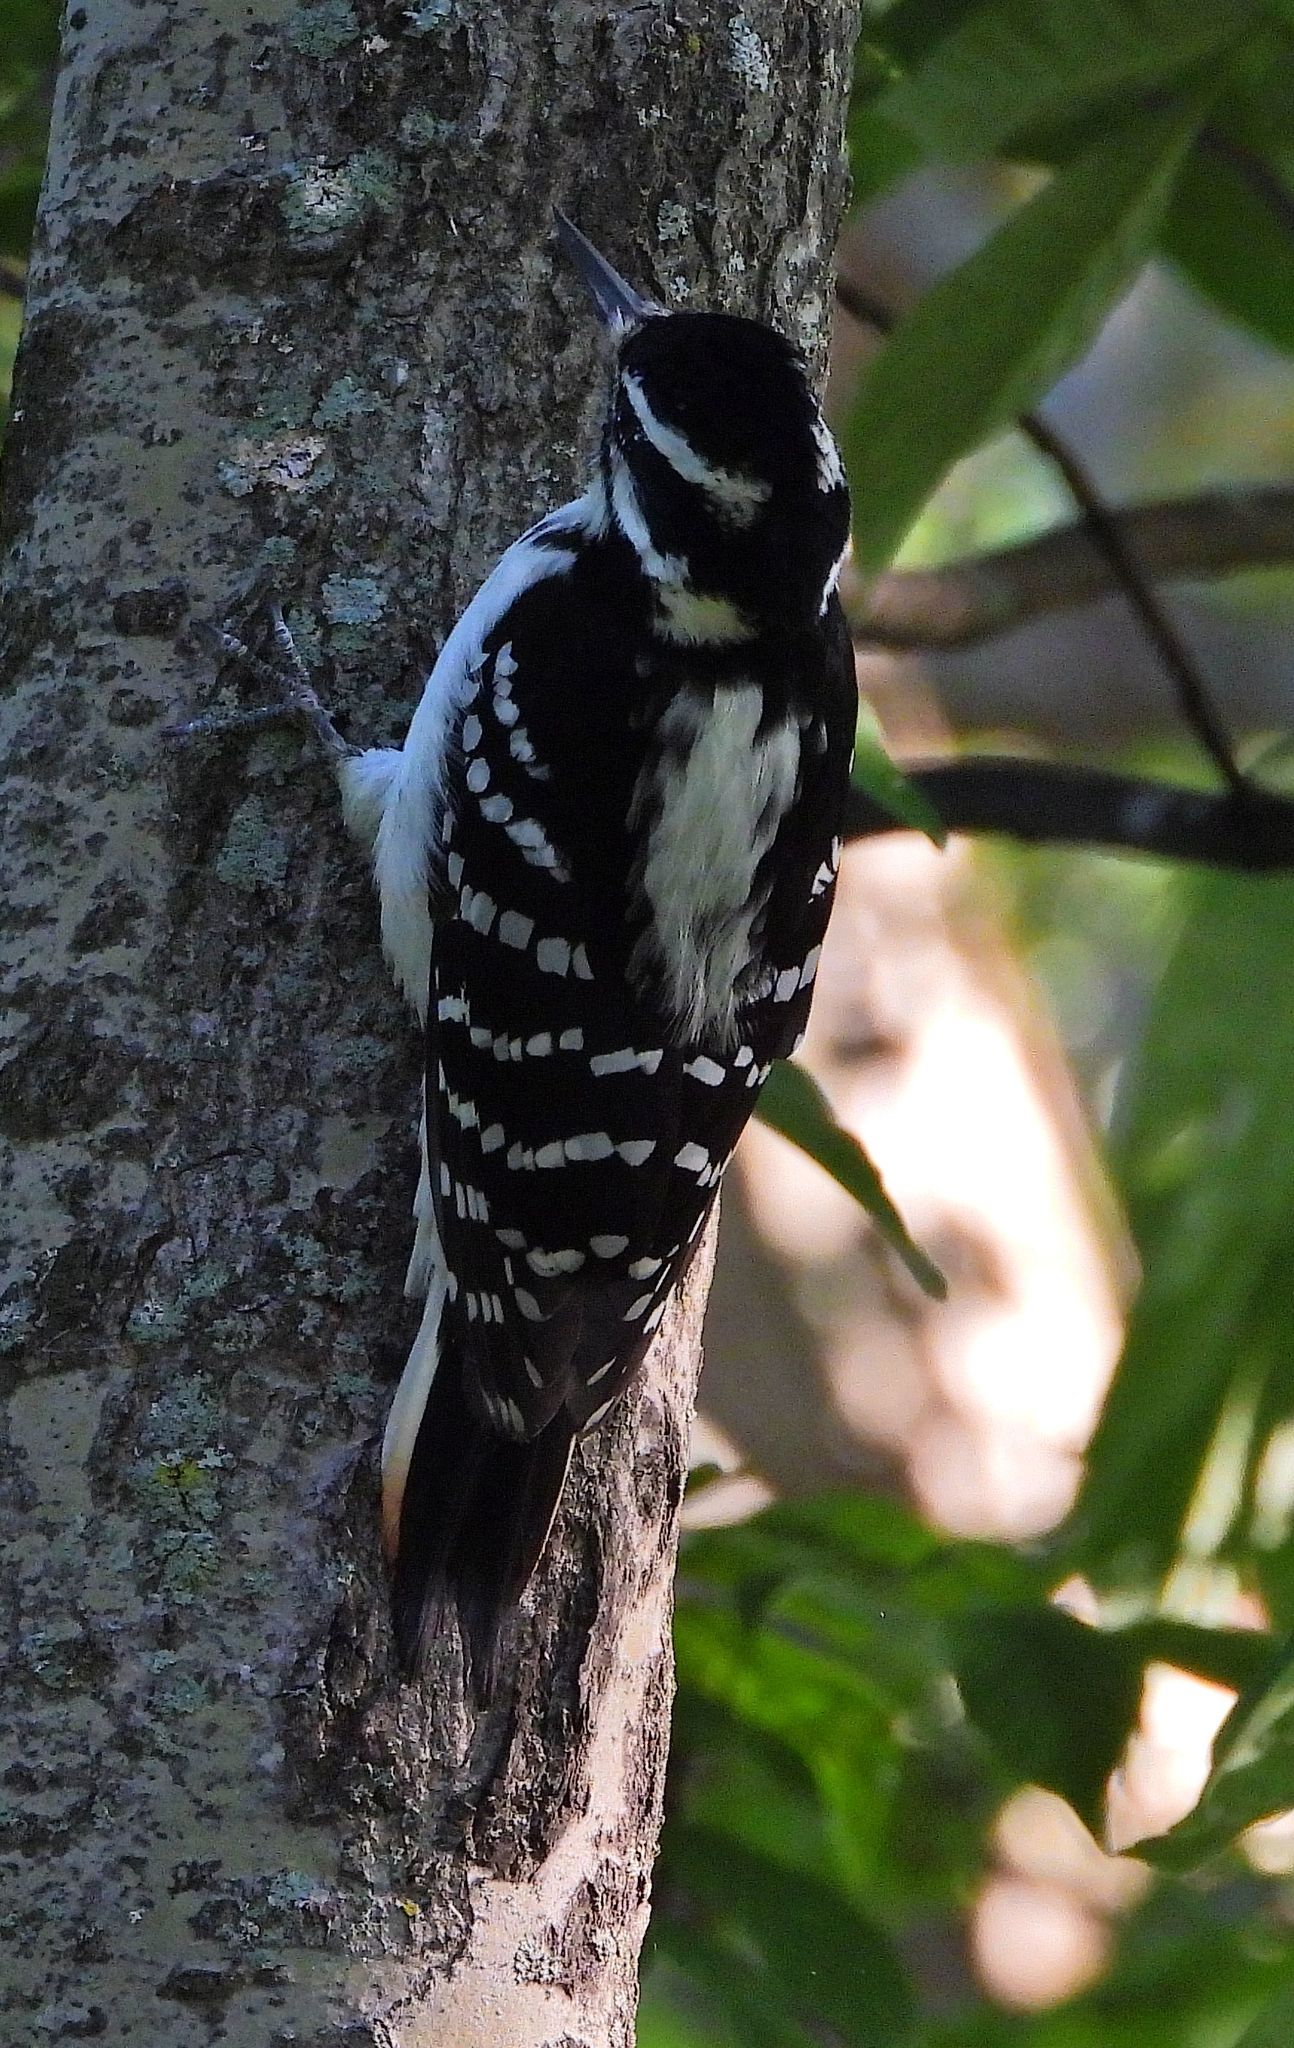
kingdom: Animalia
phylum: Chordata
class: Aves
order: Piciformes
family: Picidae
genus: Leuconotopicus
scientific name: Leuconotopicus villosus
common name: Hairy woodpecker
